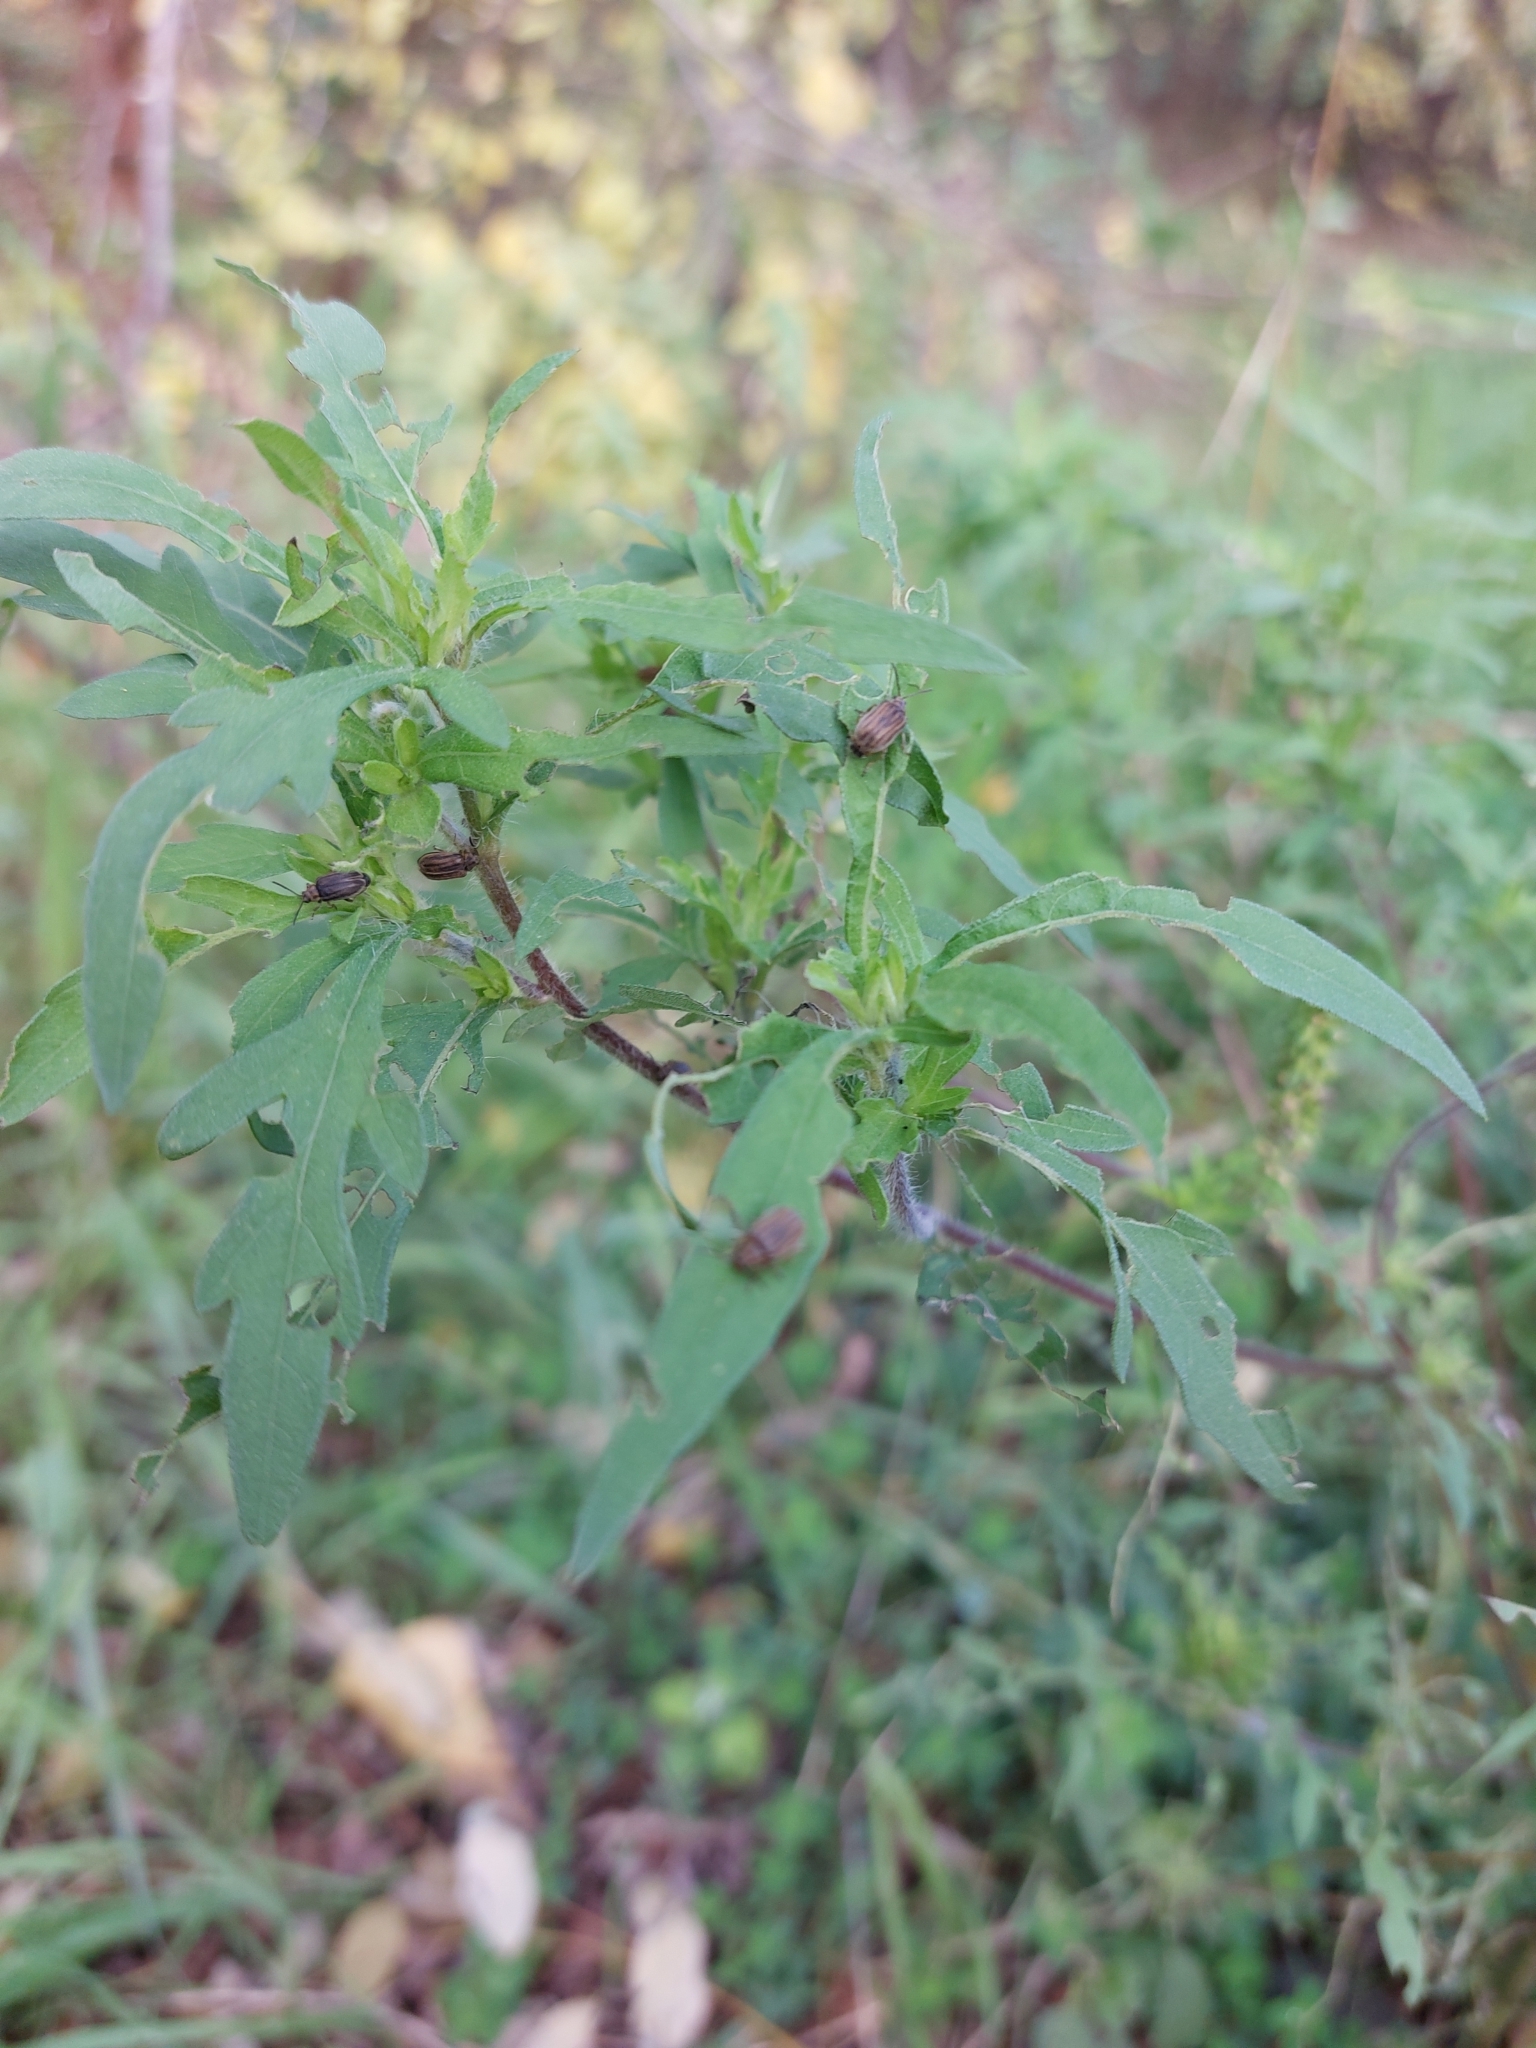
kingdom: Animalia
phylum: Arthropoda
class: Insecta
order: Coleoptera
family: Chrysomelidae
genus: Ophraella
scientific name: Ophraella communa
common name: Ragweed leaf beetle
